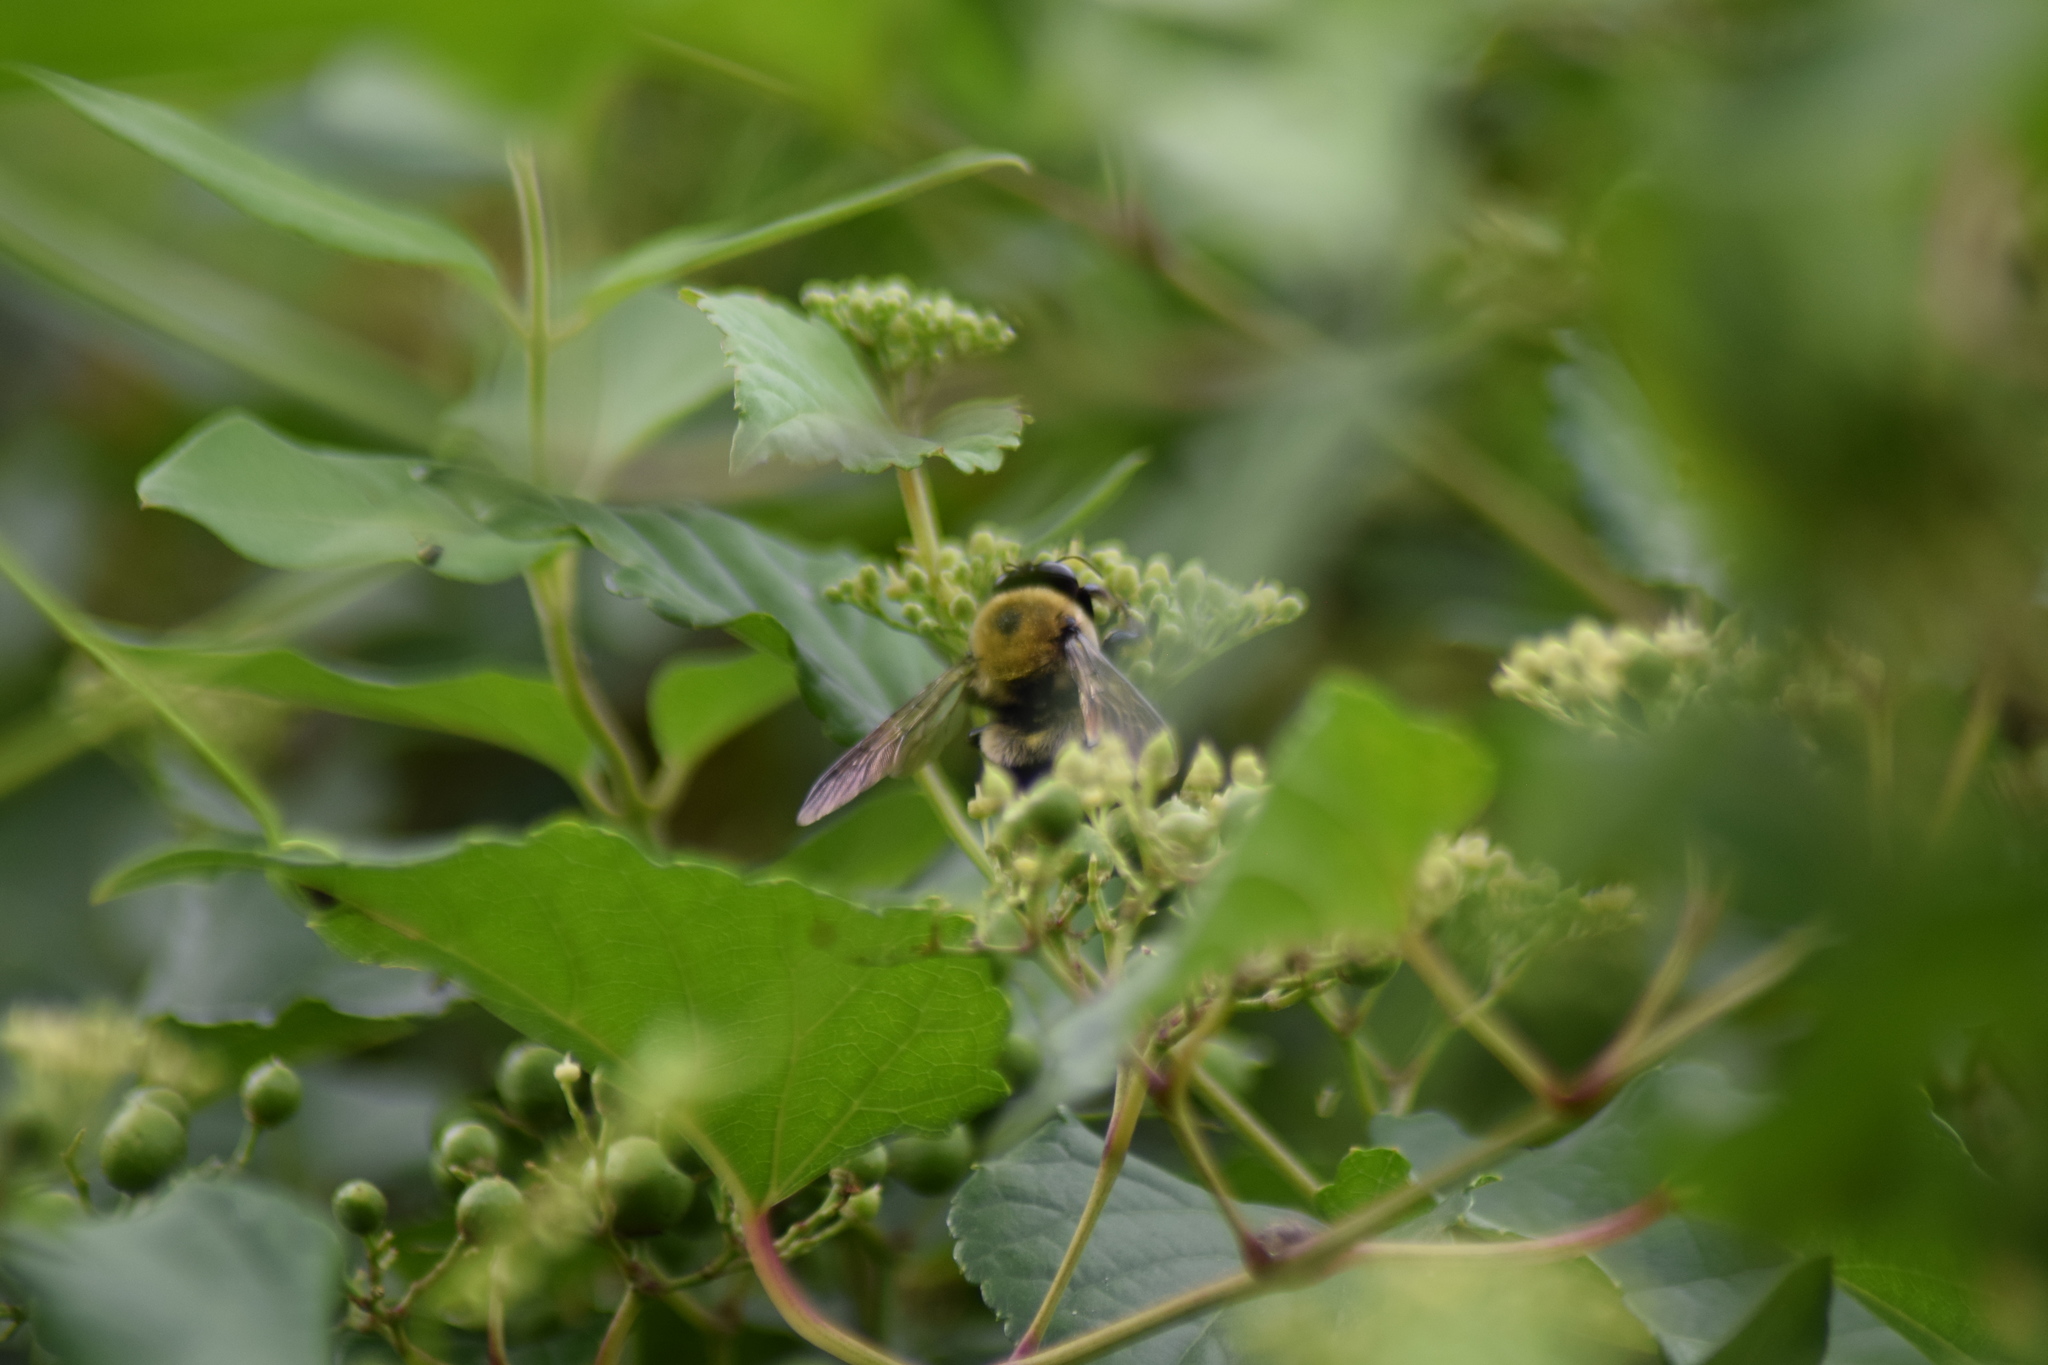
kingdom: Animalia
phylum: Arthropoda
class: Insecta
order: Hymenoptera
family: Apidae
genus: Xylocopa
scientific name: Xylocopa virginica
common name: Carpenter bee
